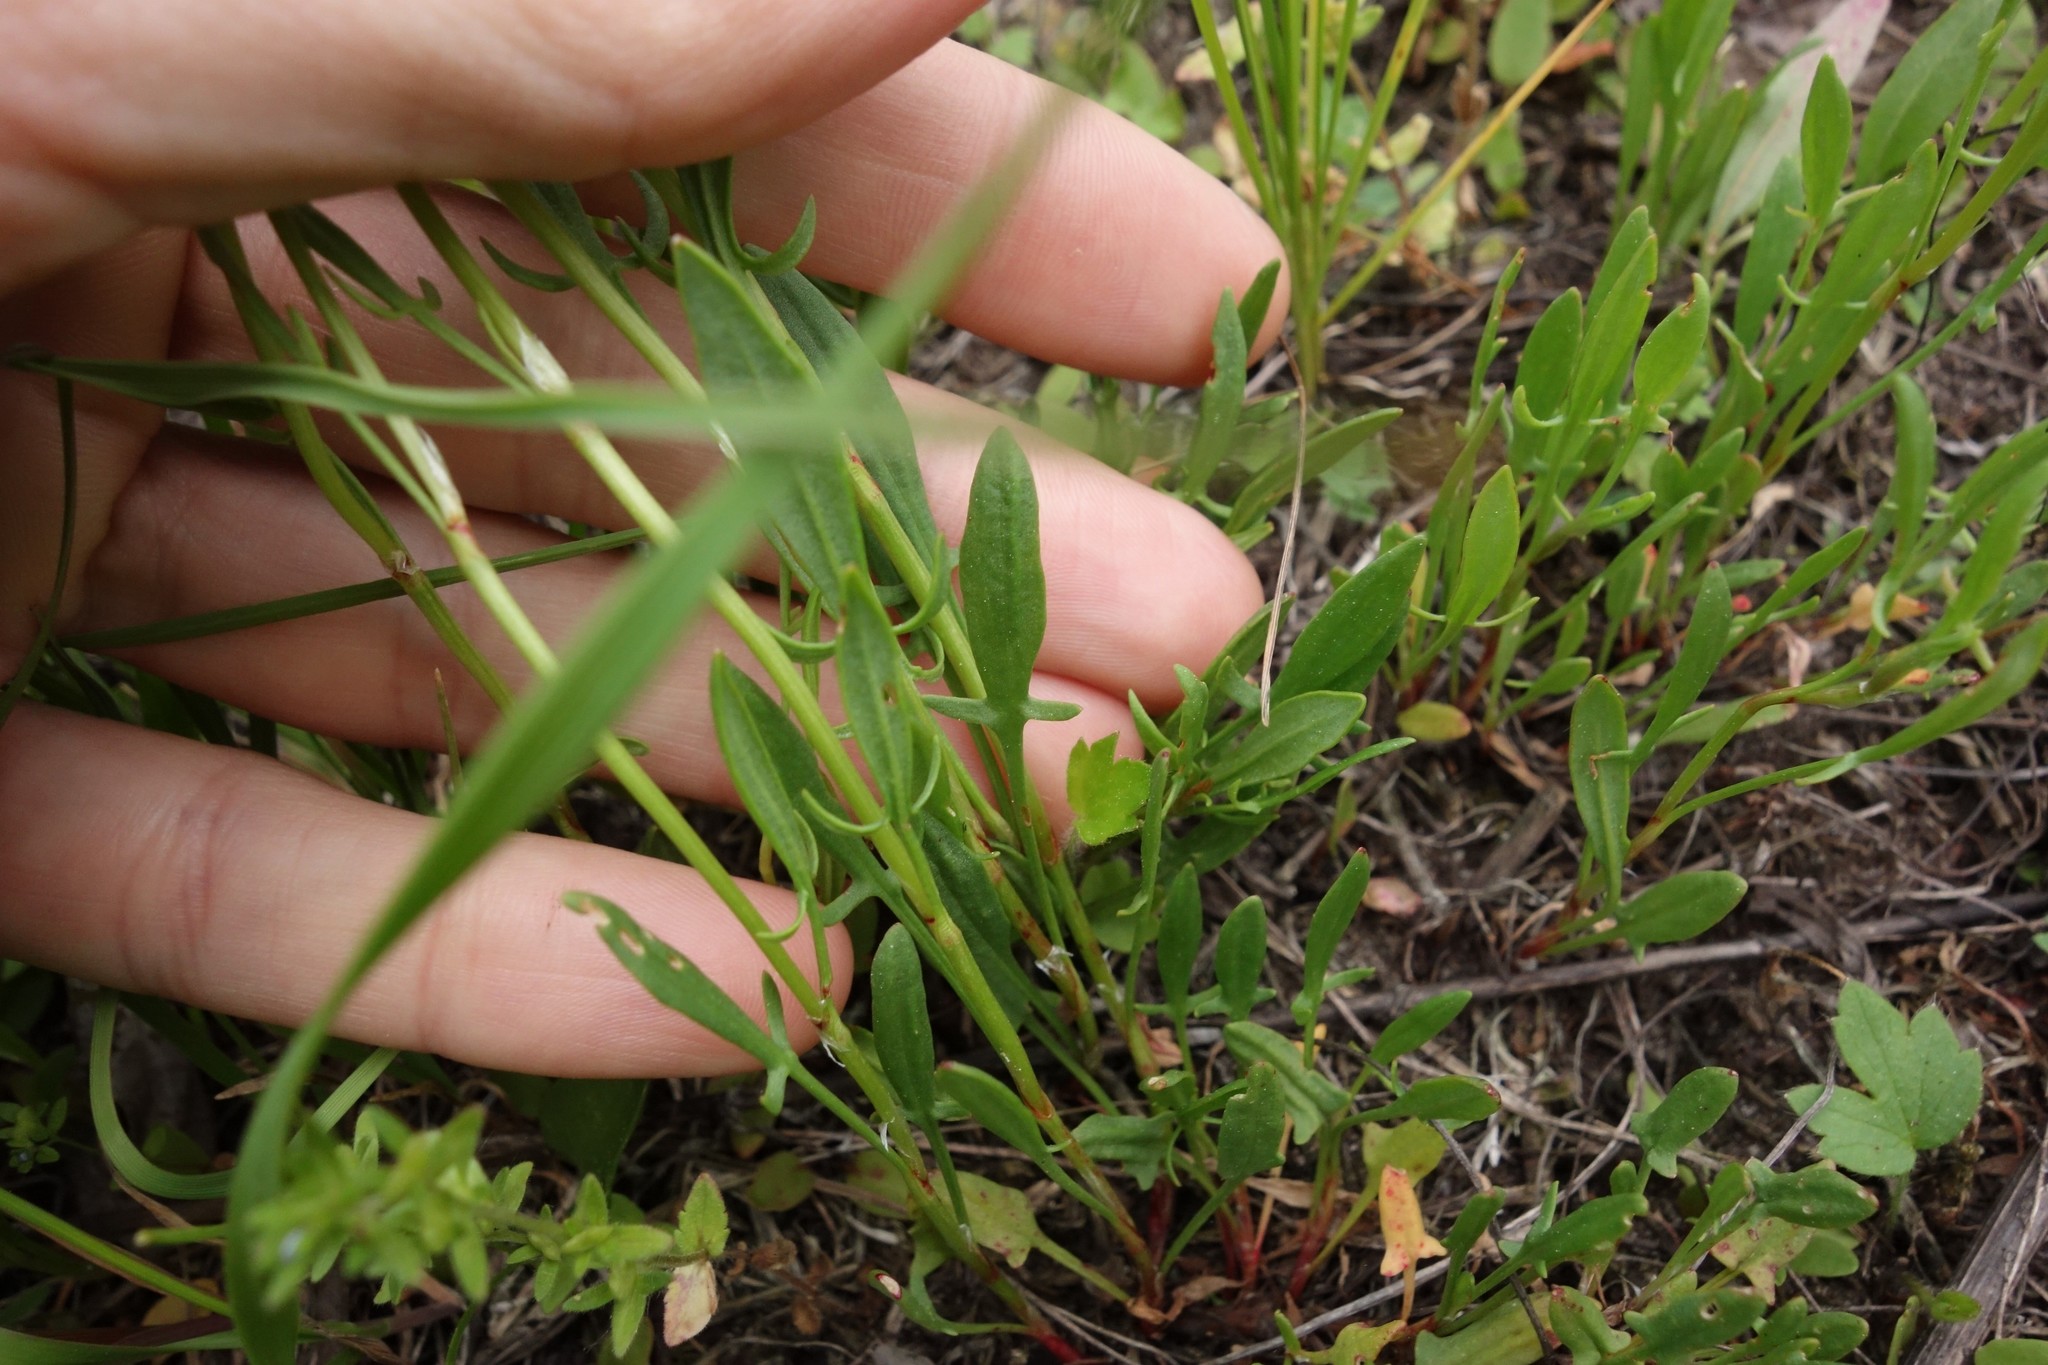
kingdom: Plantae
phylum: Tracheophyta
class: Magnoliopsida
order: Caryophyllales
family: Polygonaceae
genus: Rumex
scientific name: Rumex acetosella
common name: Common sheep sorrel
